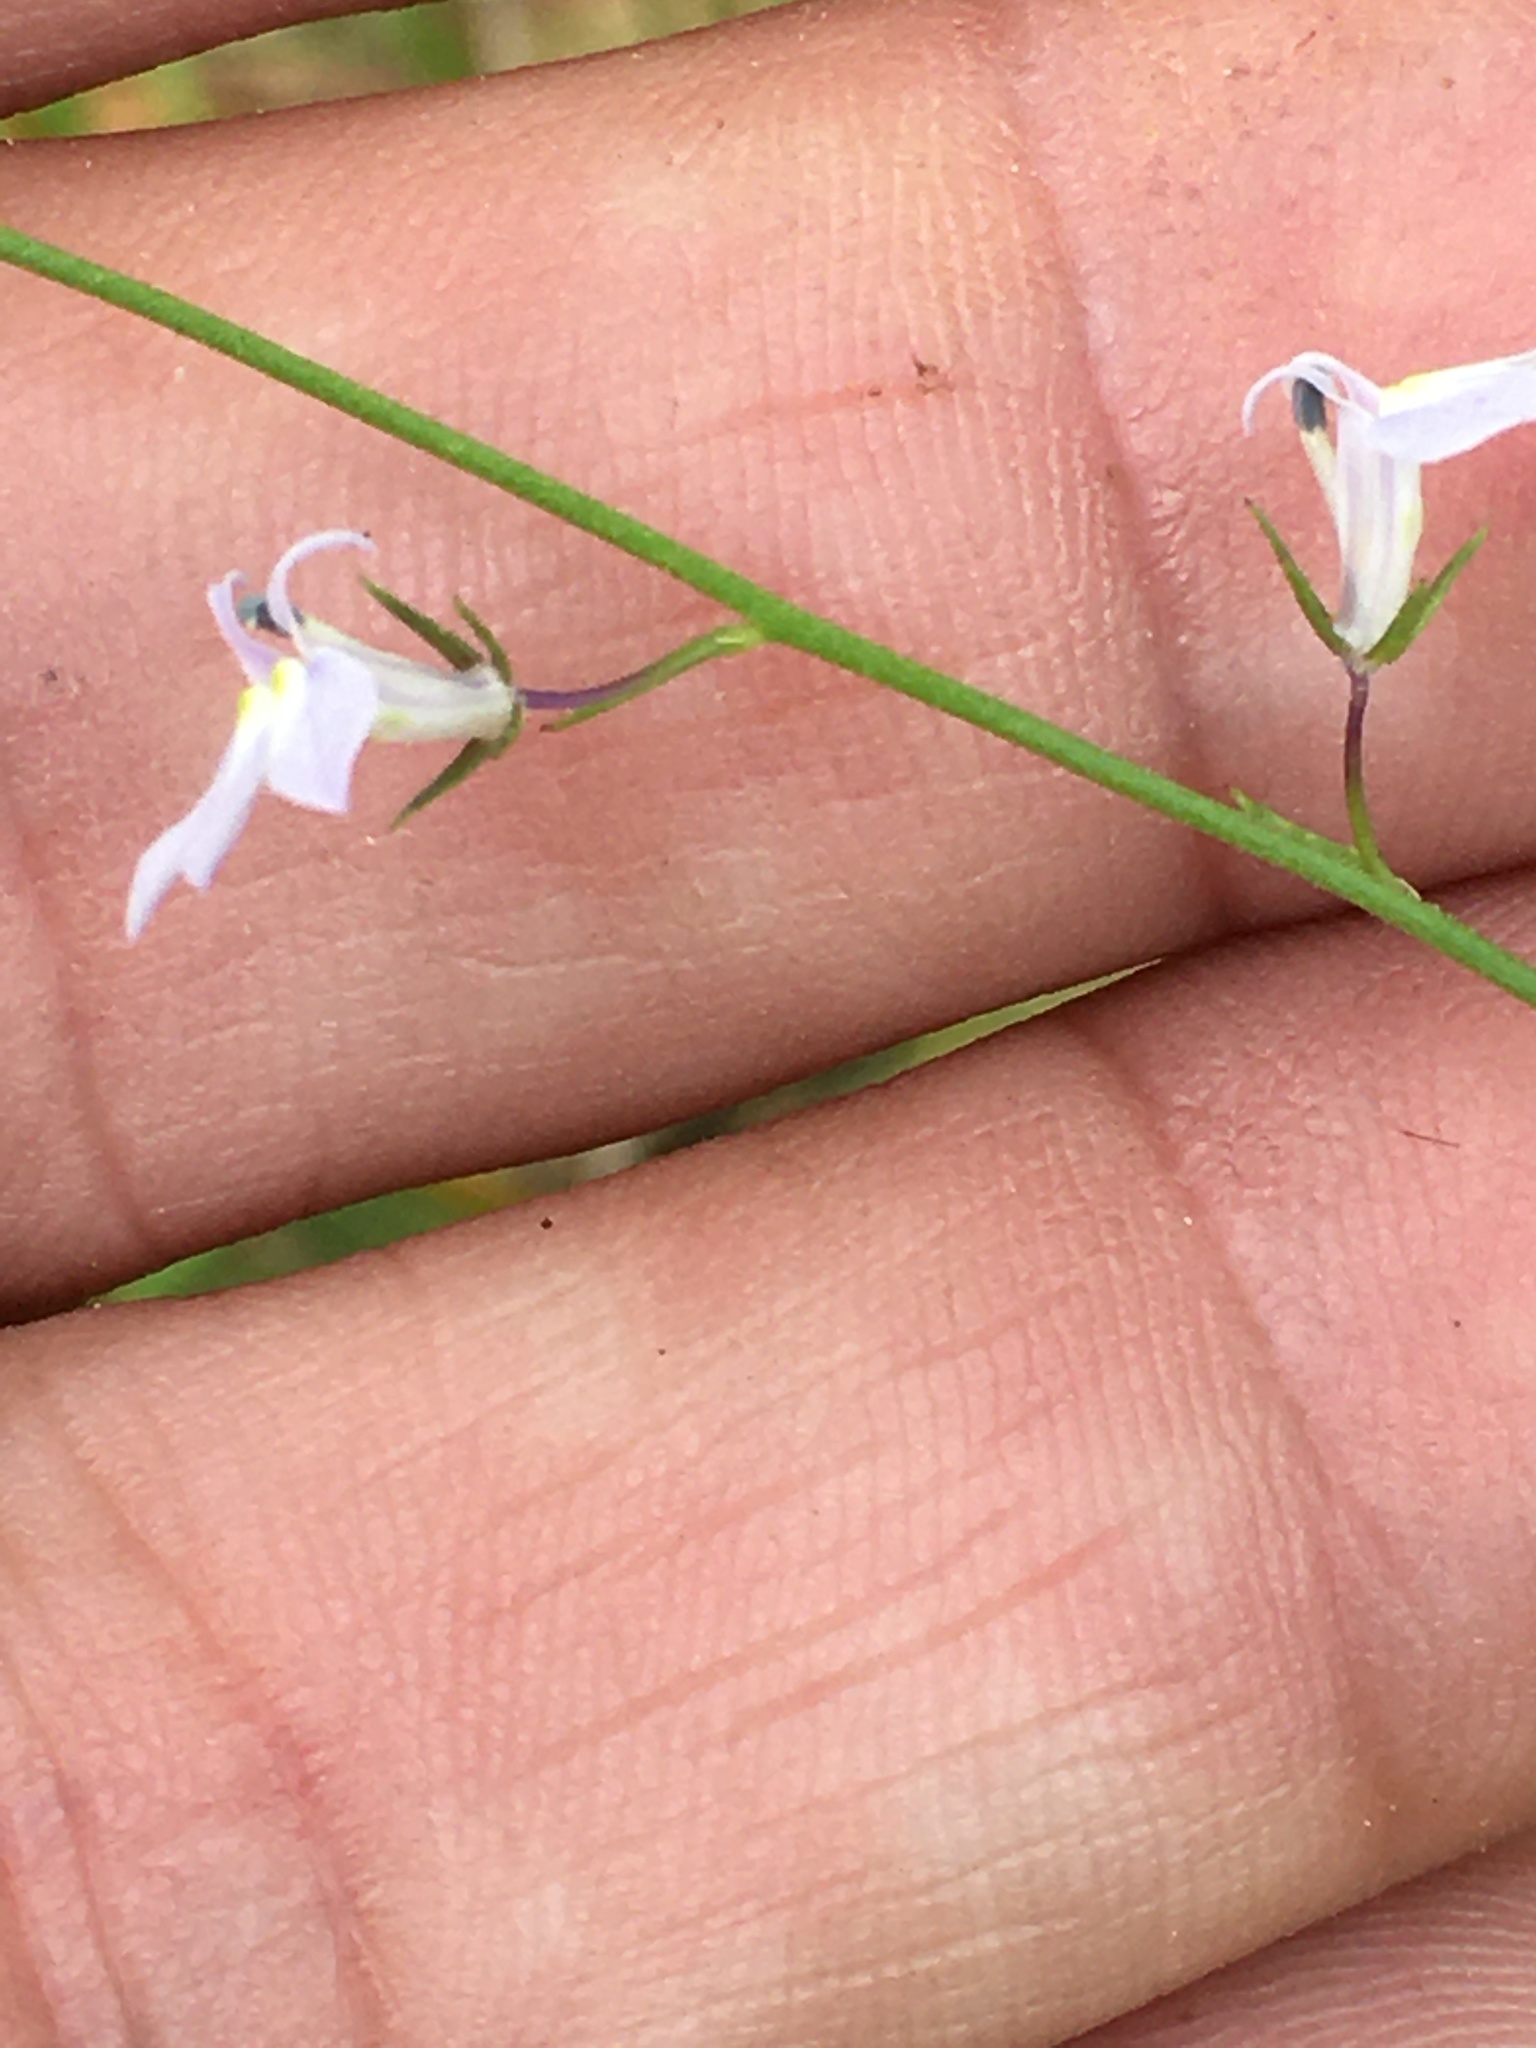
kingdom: Plantae
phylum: Tracheophyta
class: Magnoliopsida
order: Asterales
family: Campanulaceae
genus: Lobelia
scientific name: Lobelia nuttallii
